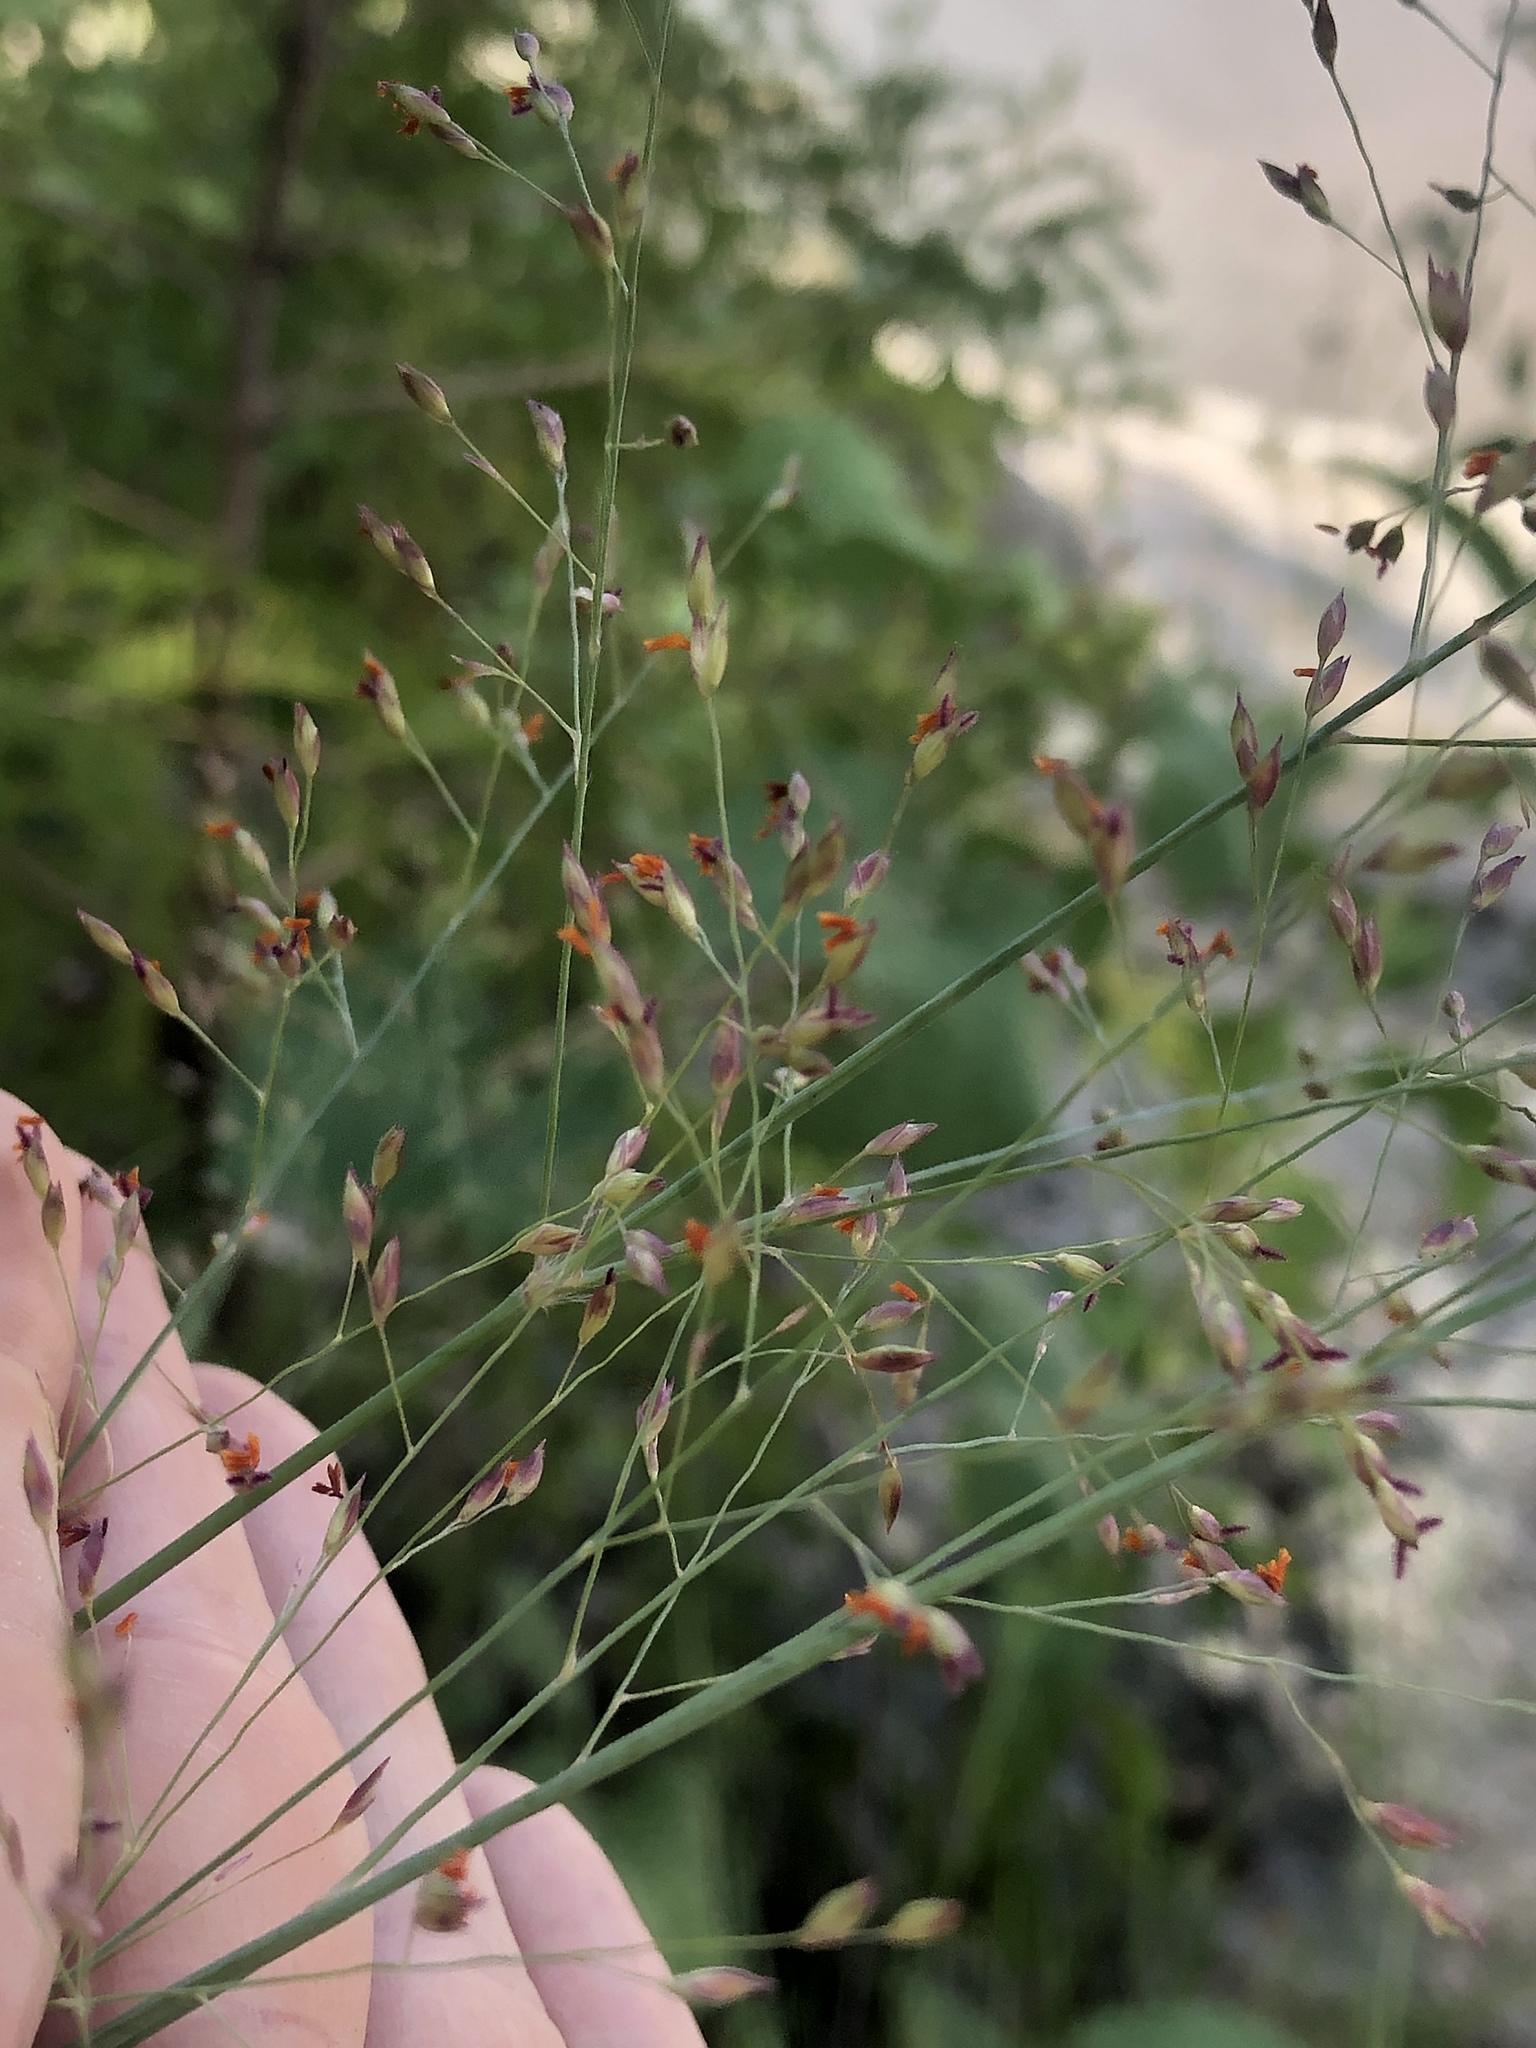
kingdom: Plantae
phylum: Tracheophyta
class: Liliopsida
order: Poales
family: Poaceae
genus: Panicum
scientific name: Panicum virgatum
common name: Switchgrass
